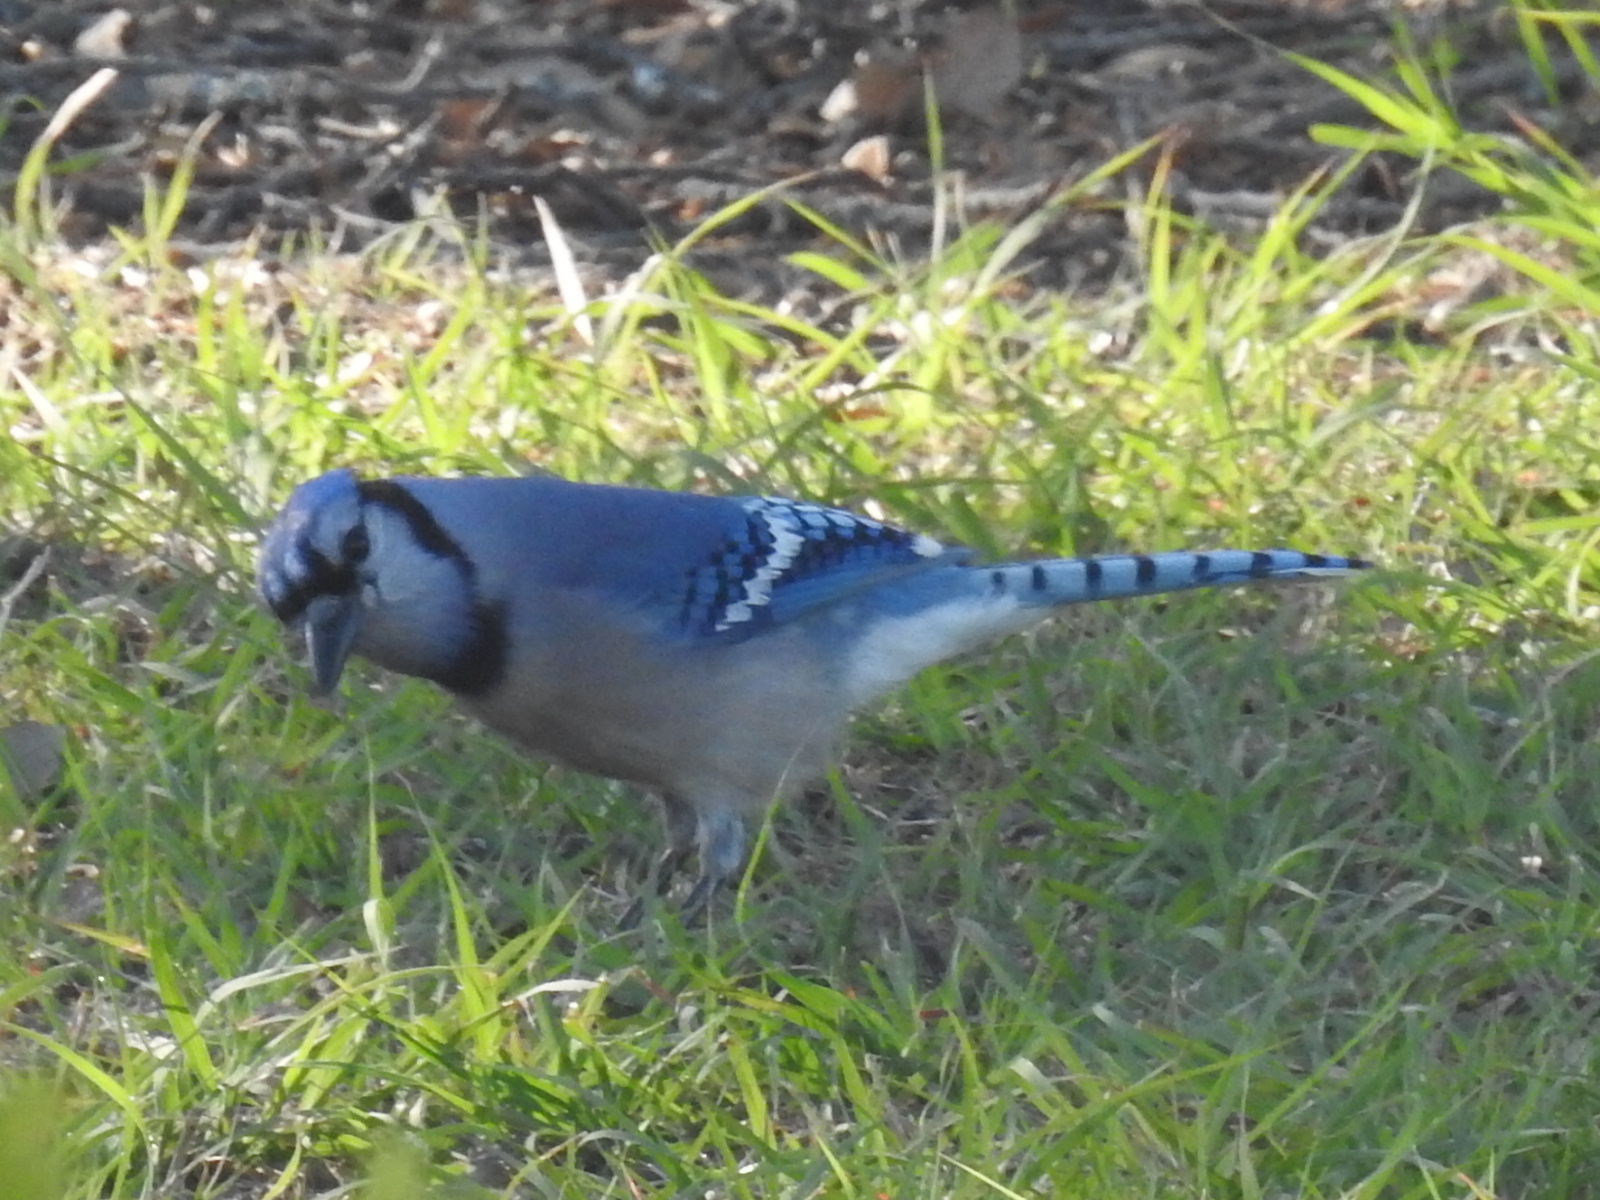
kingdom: Animalia
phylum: Chordata
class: Aves
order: Passeriformes
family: Corvidae
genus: Cyanocitta
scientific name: Cyanocitta cristata
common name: Blue jay
